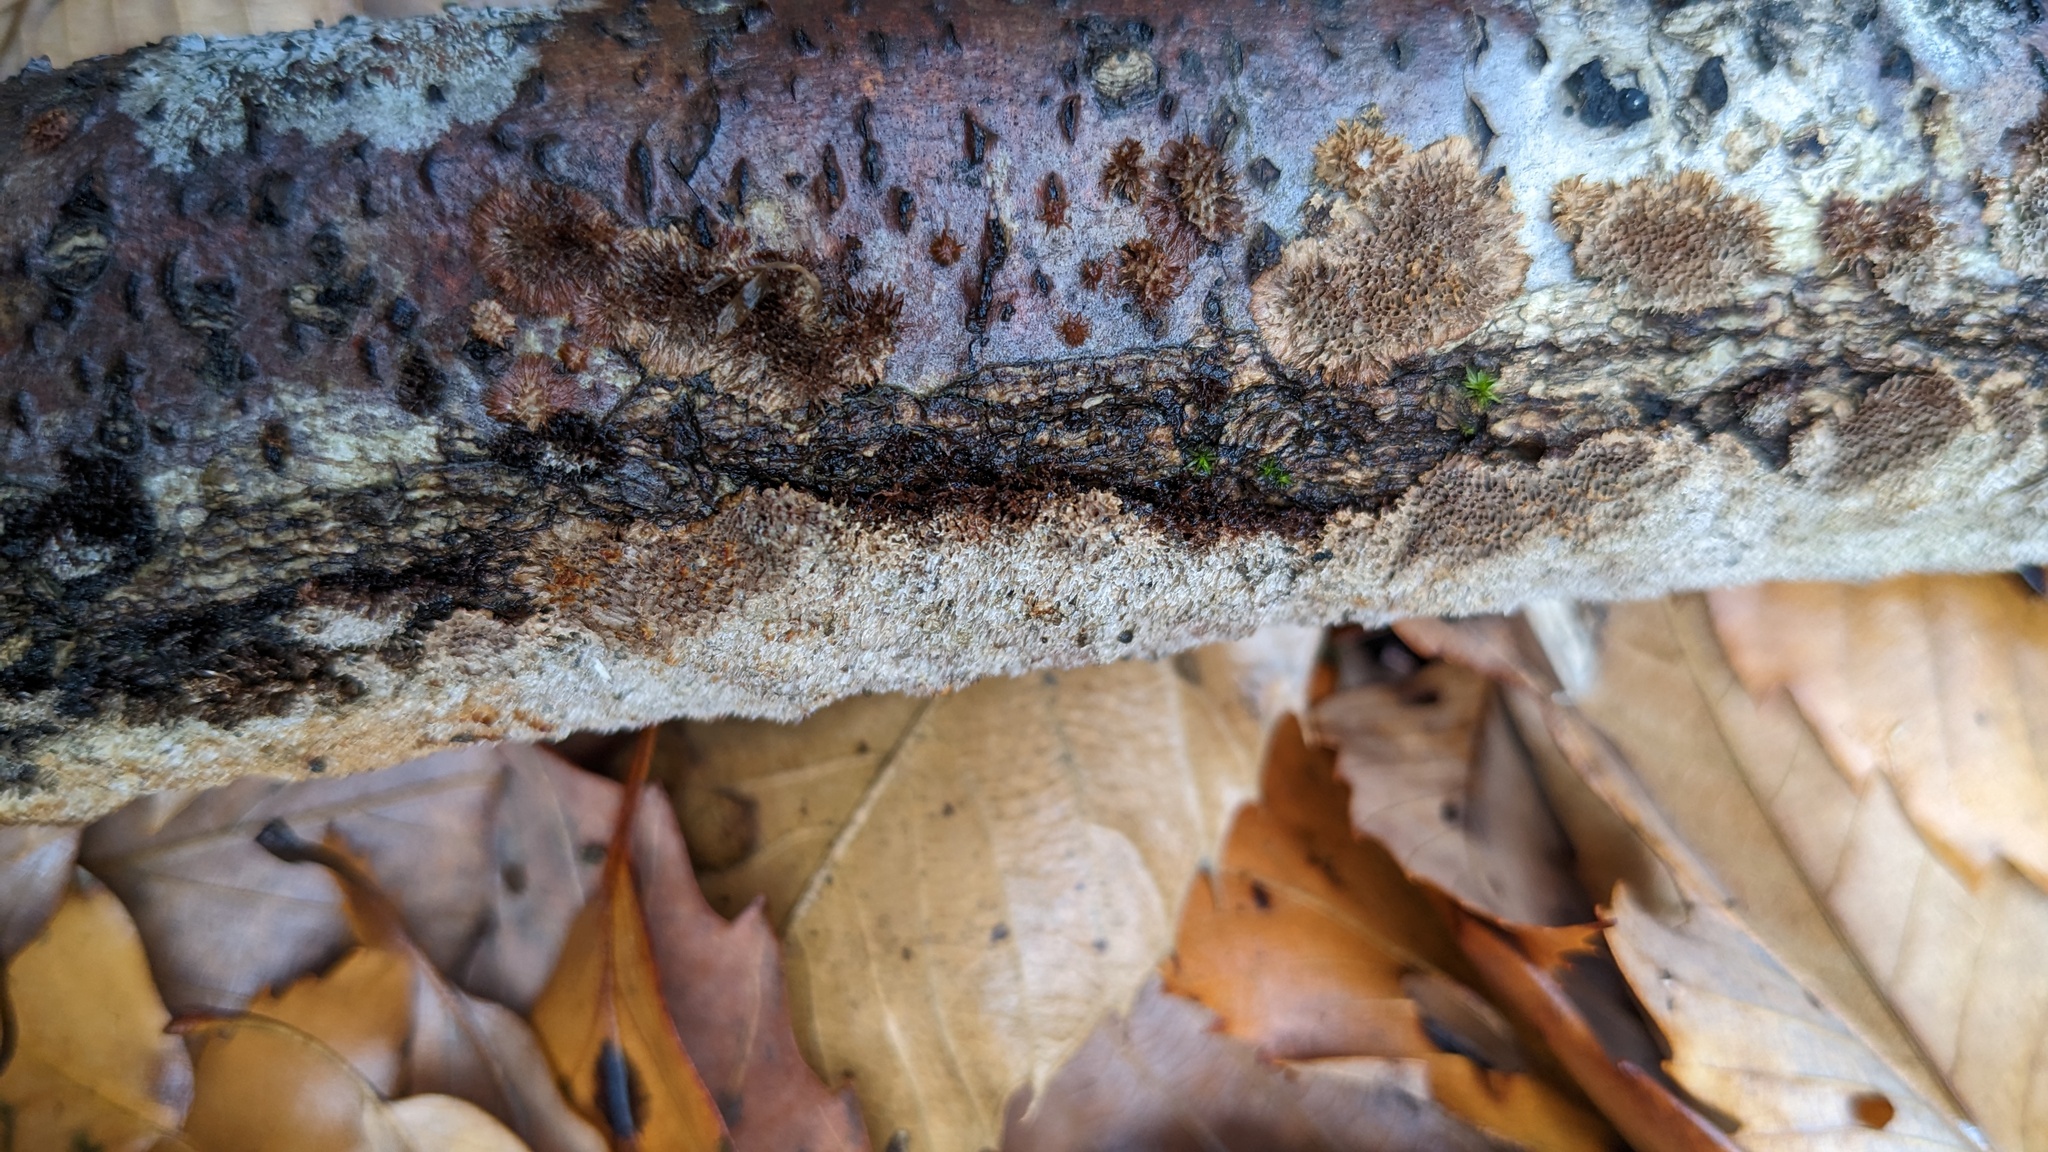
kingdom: Fungi
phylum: Basidiomycota
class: Agaricomycetes
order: Hymenochaetales
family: Hymenochaetaceae
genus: Fuscoporia
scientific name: Fuscoporia setifera
